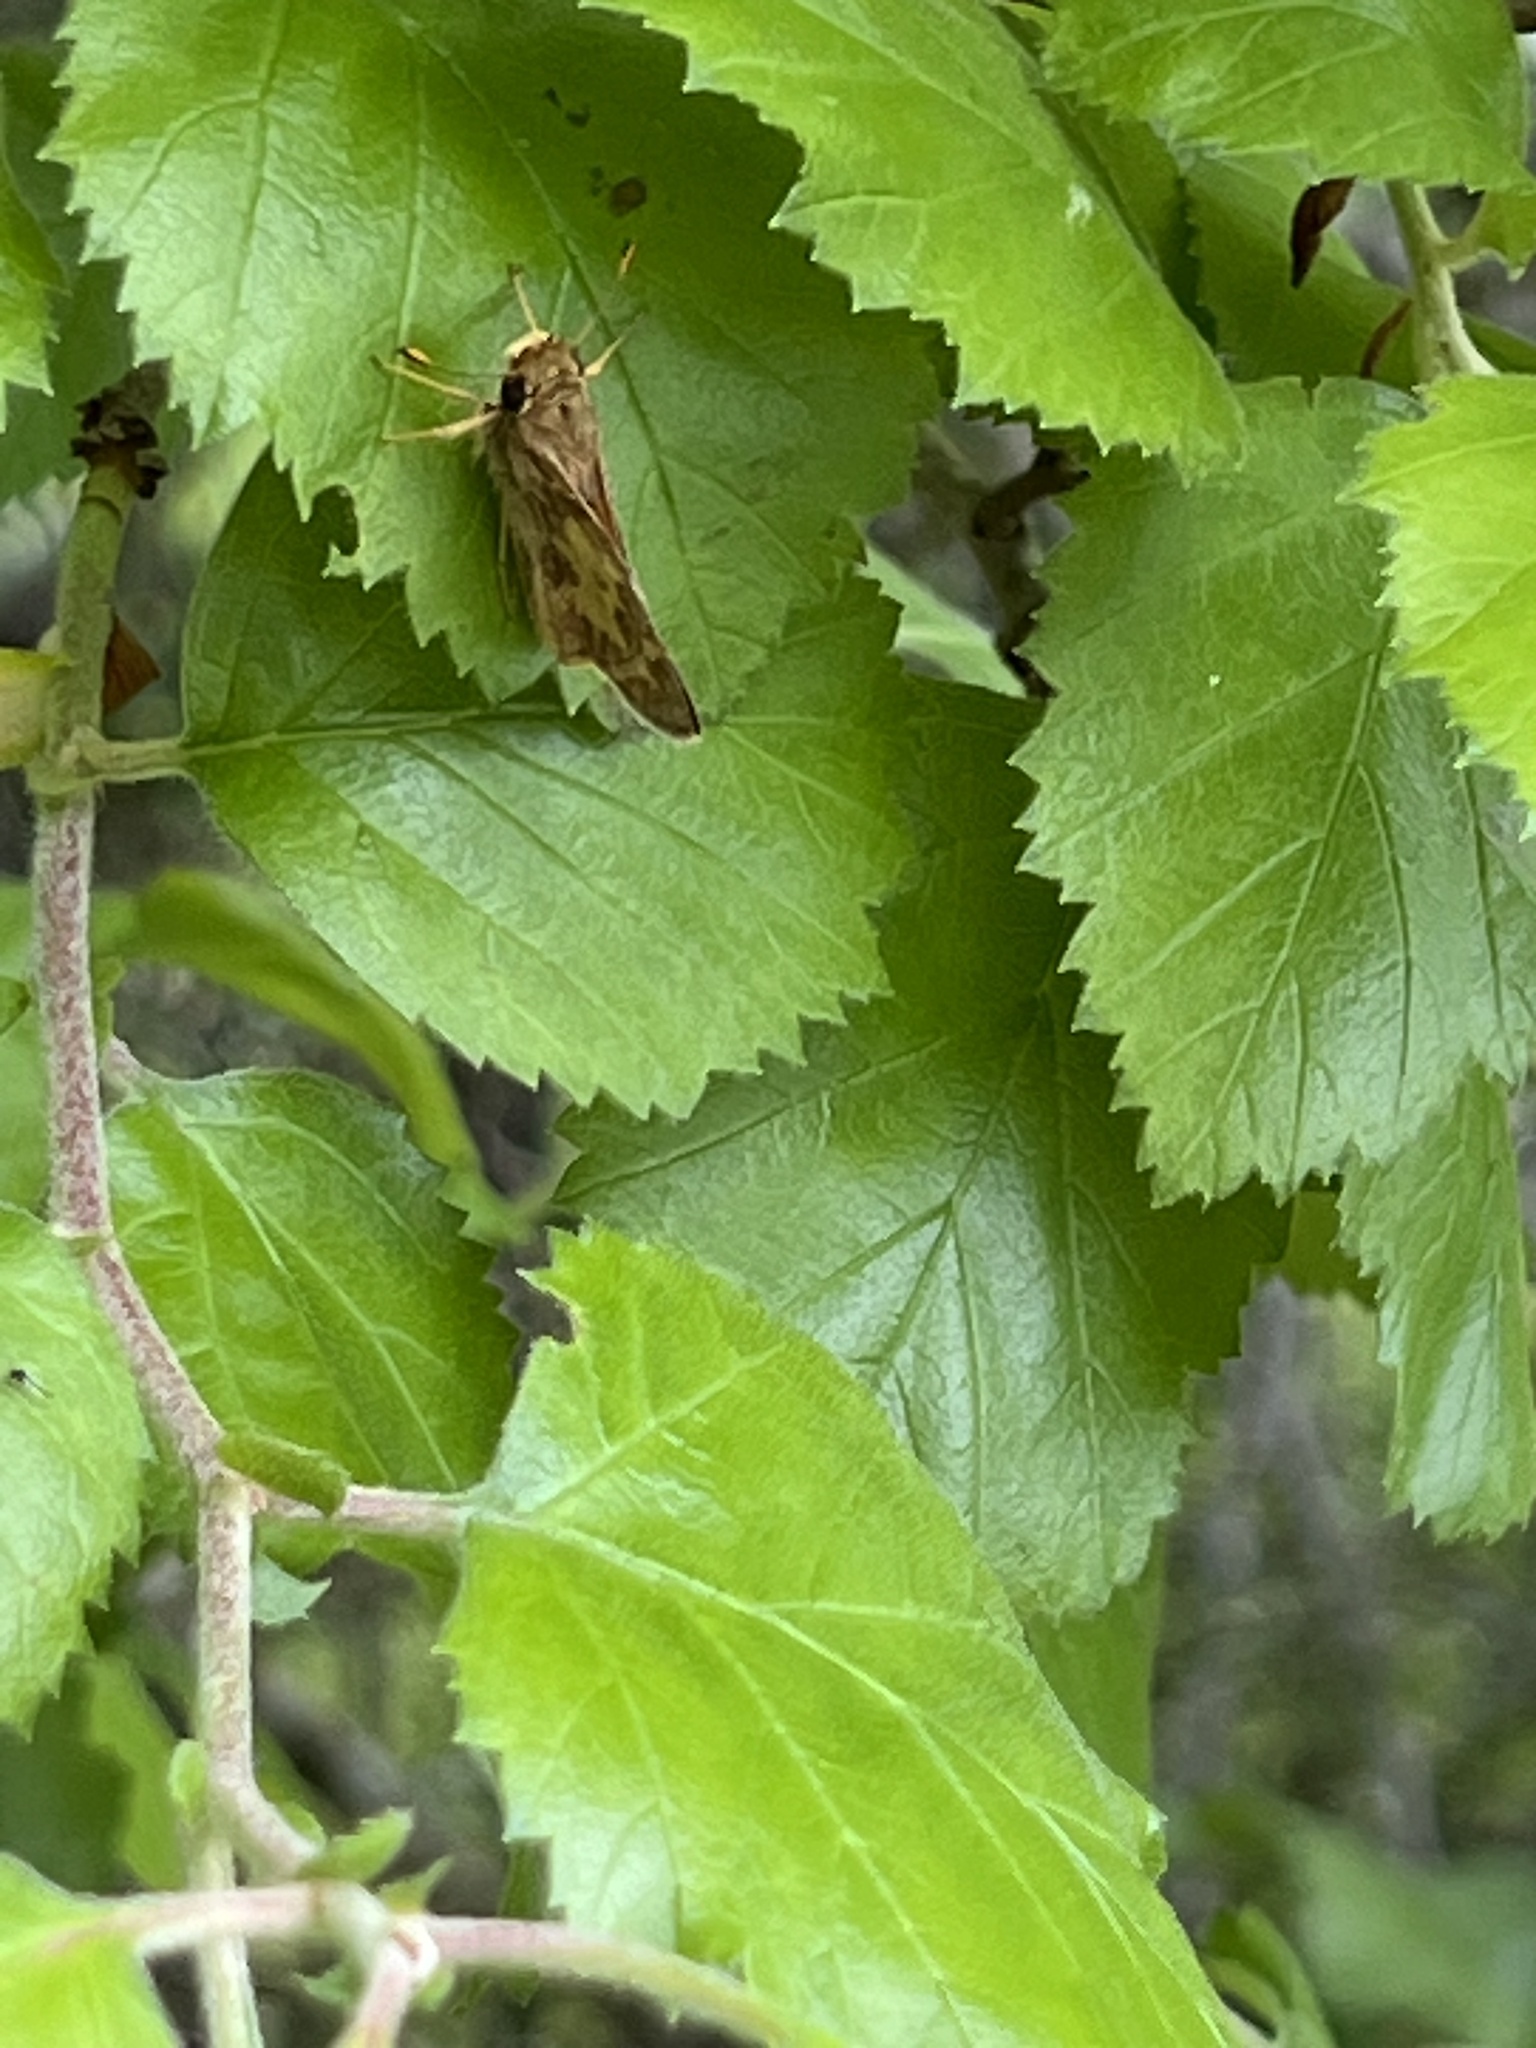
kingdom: Animalia
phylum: Arthropoda
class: Insecta
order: Lepidoptera
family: Hesperiidae
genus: Atalopedes
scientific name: Atalopedes
